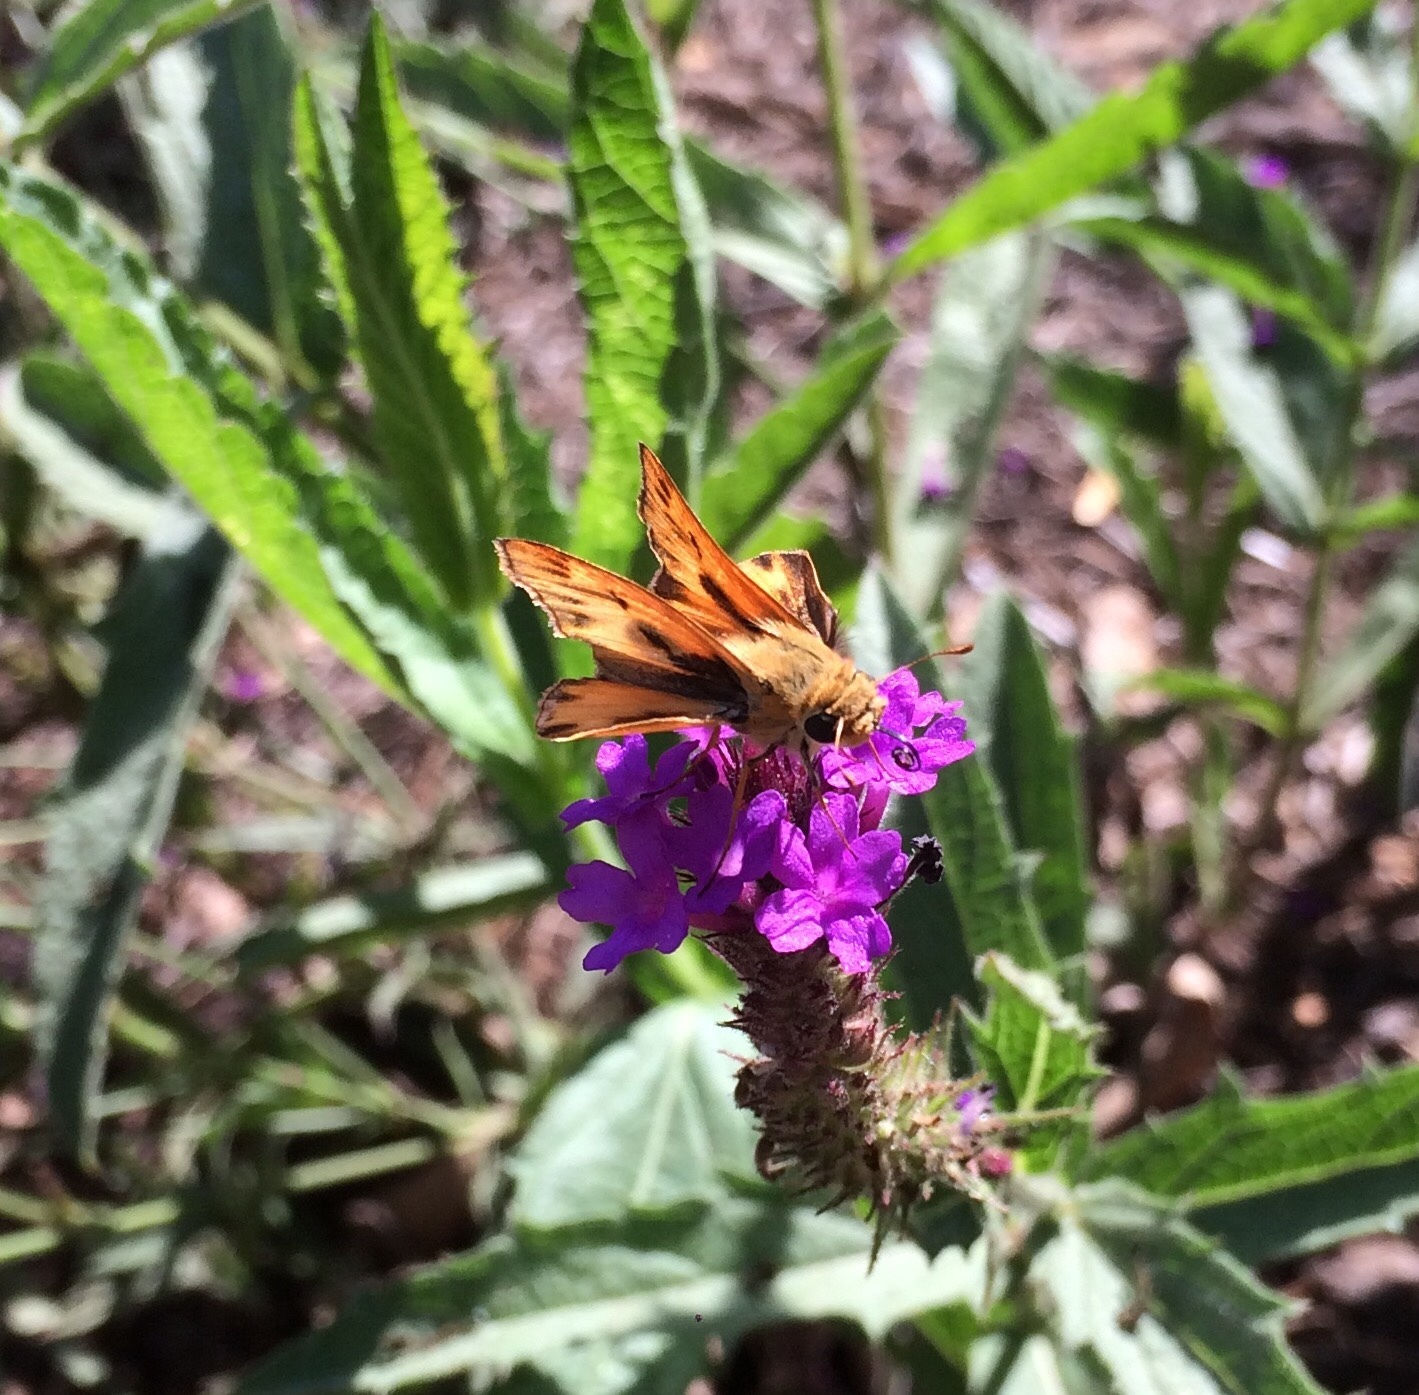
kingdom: Animalia
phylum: Arthropoda
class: Insecta
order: Lepidoptera
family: Hesperiidae
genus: Hylephila
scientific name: Hylephila phyleus
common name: Fiery skipper
